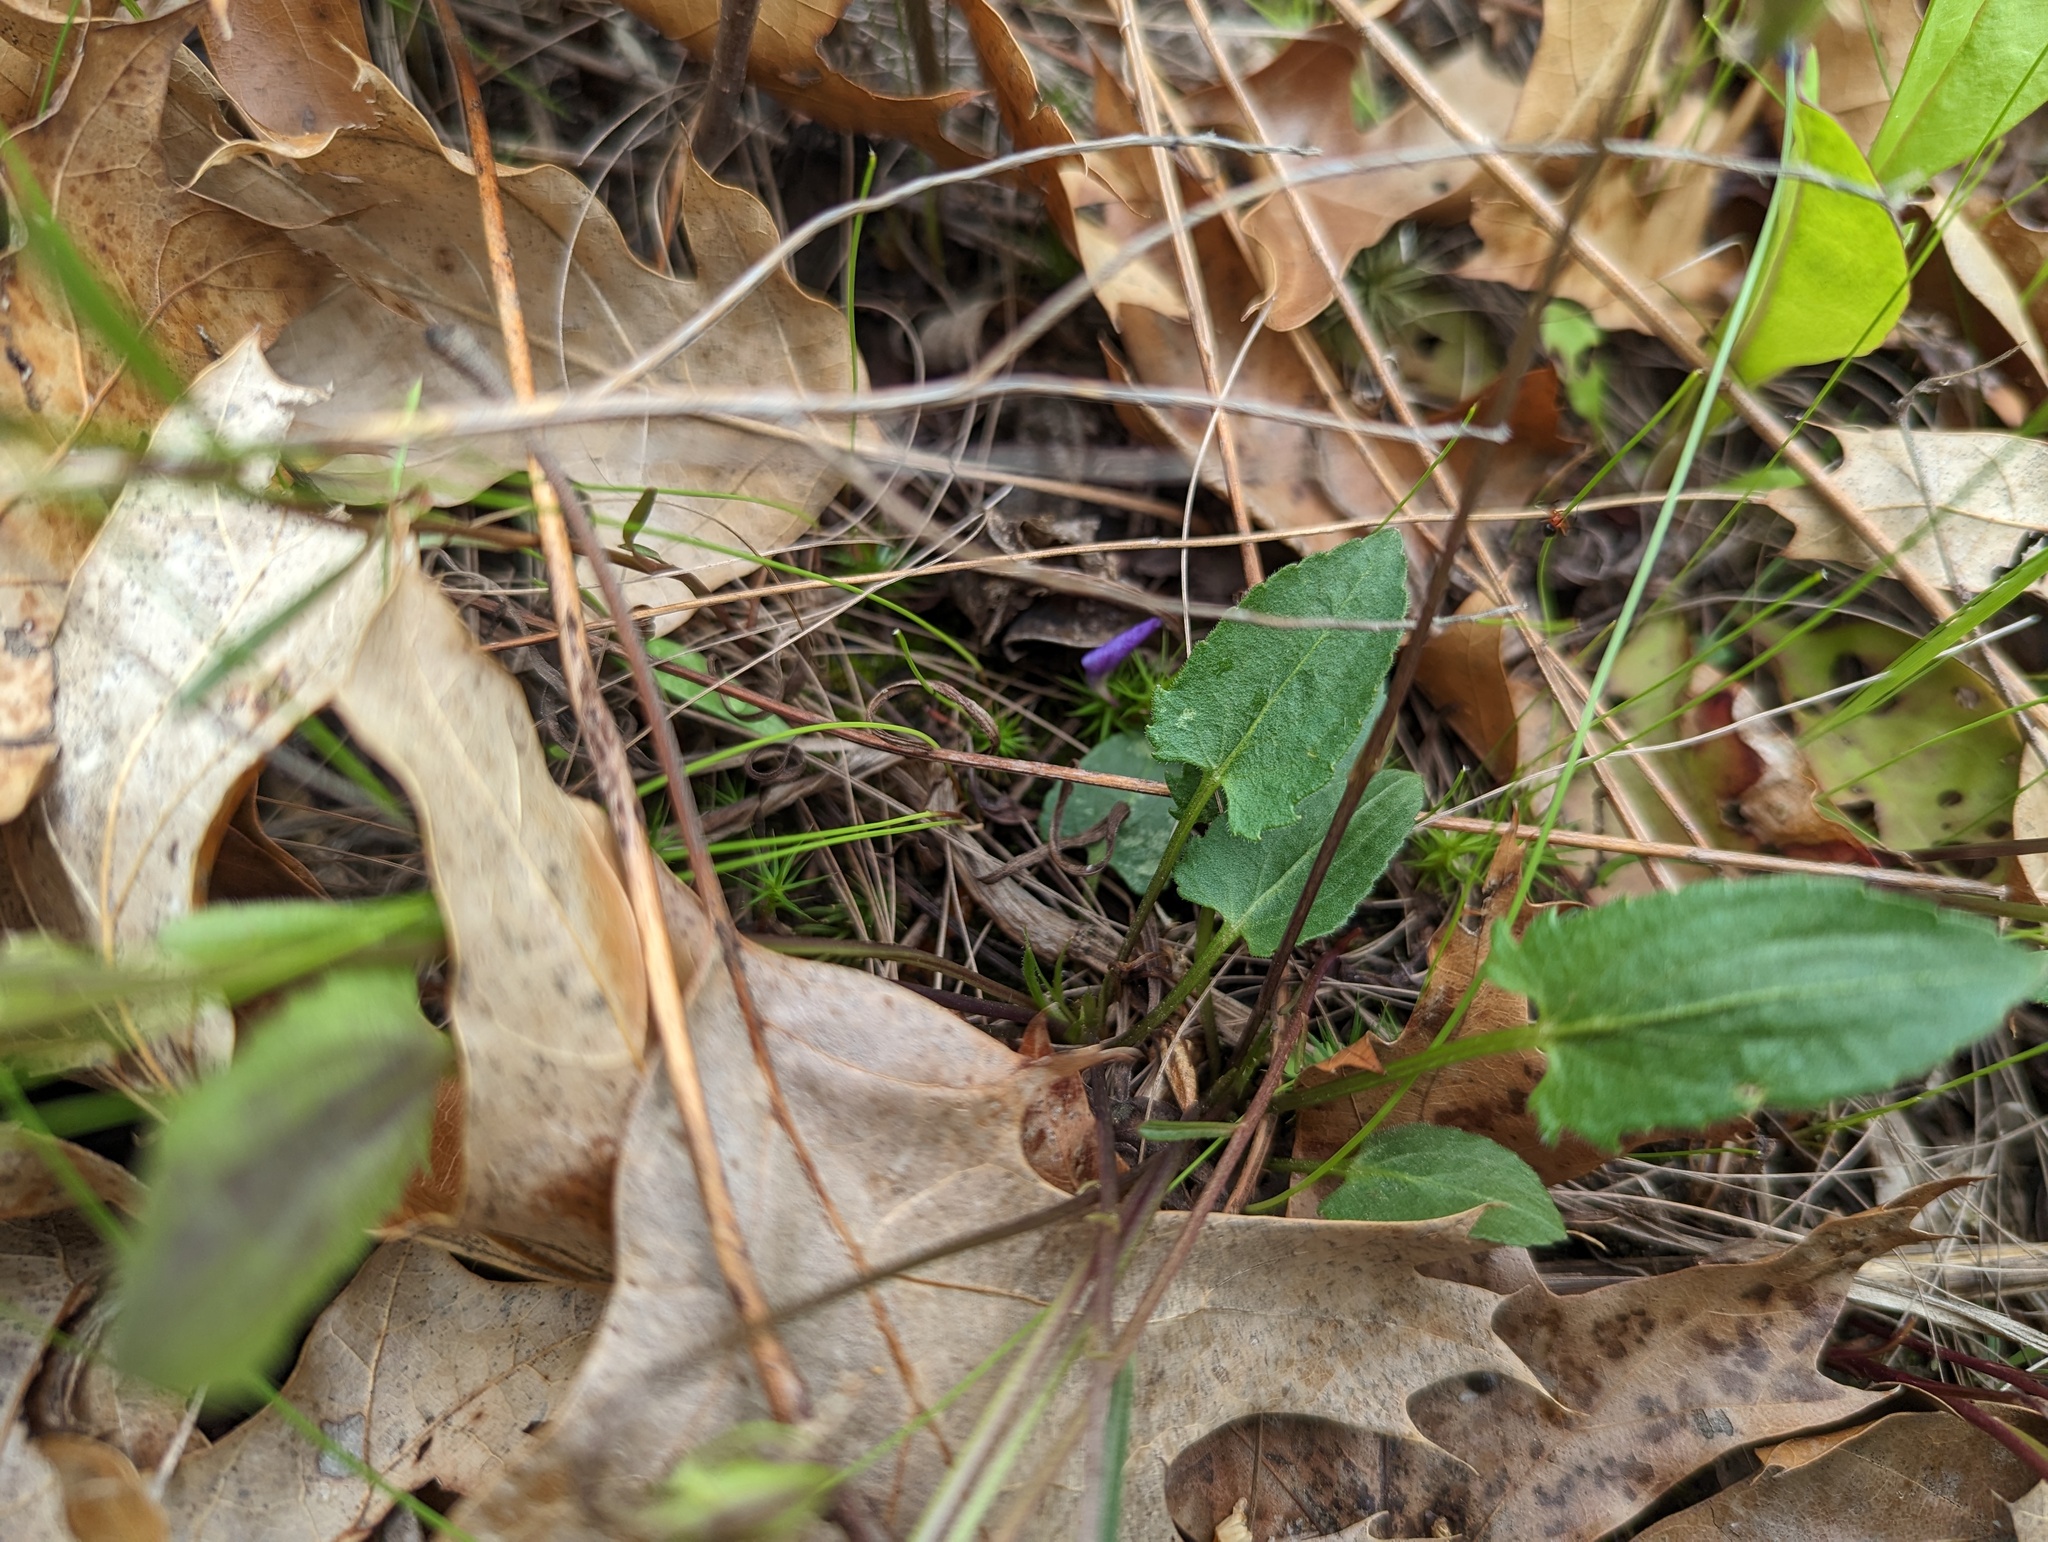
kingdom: Plantae
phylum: Tracheophyta
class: Magnoliopsida
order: Malpighiales
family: Violaceae
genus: Viola
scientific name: Viola sagittata
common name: Arrowhead violet
